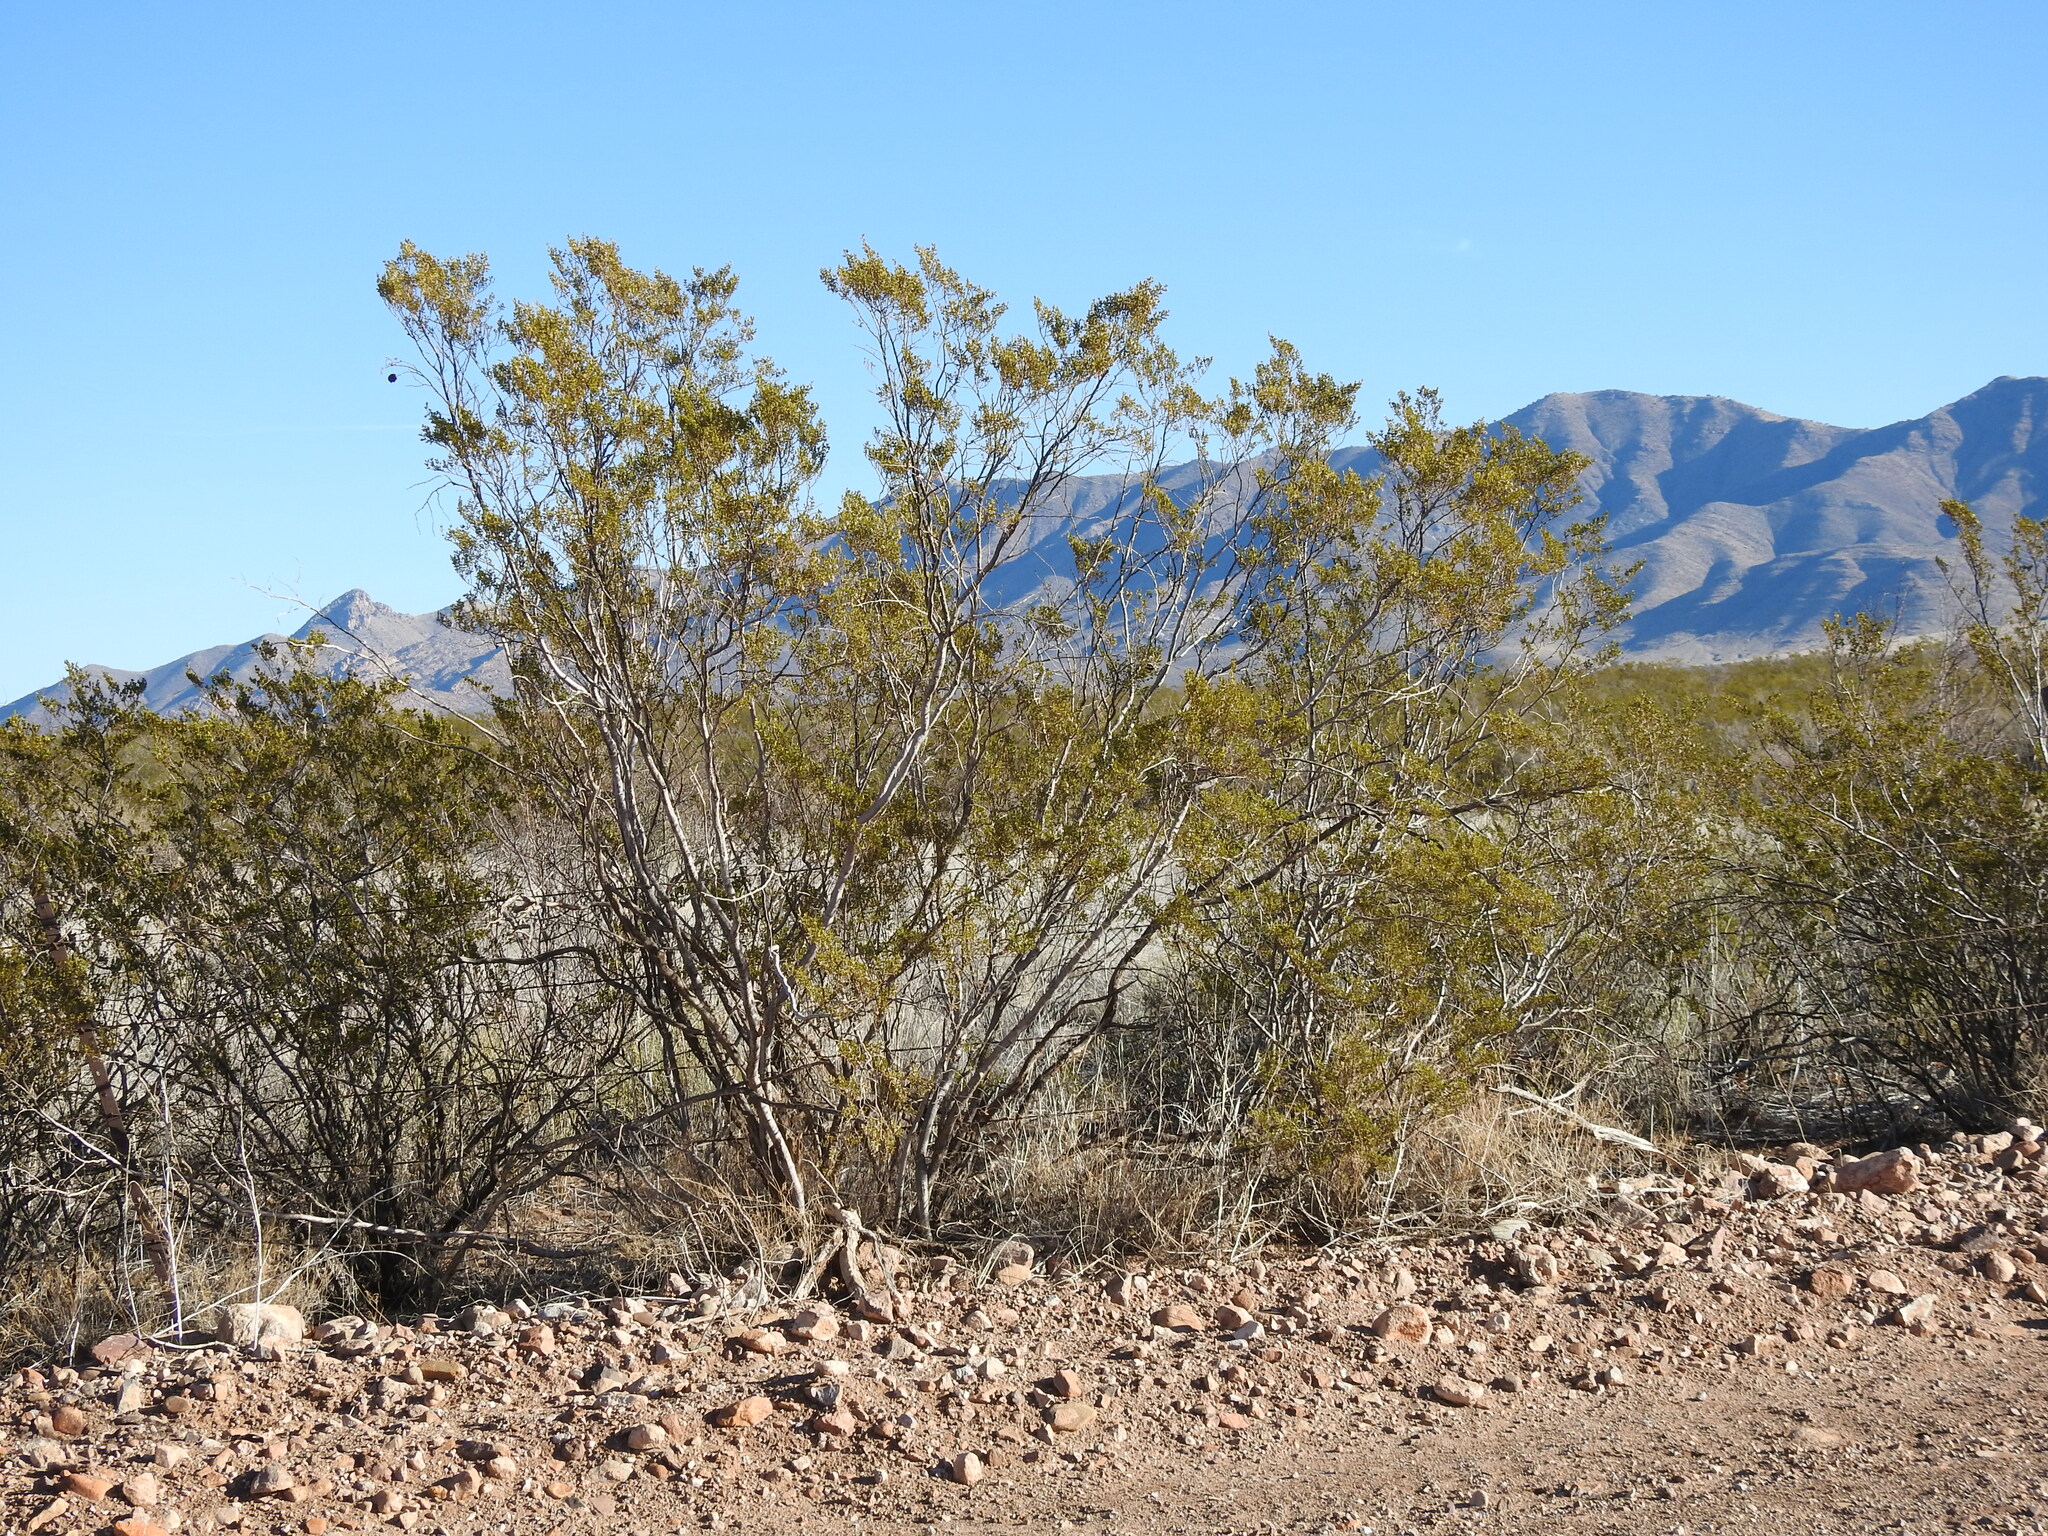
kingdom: Plantae
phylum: Tracheophyta
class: Magnoliopsida
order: Zygophyllales
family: Zygophyllaceae
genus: Larrea
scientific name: Larrea tridentata
